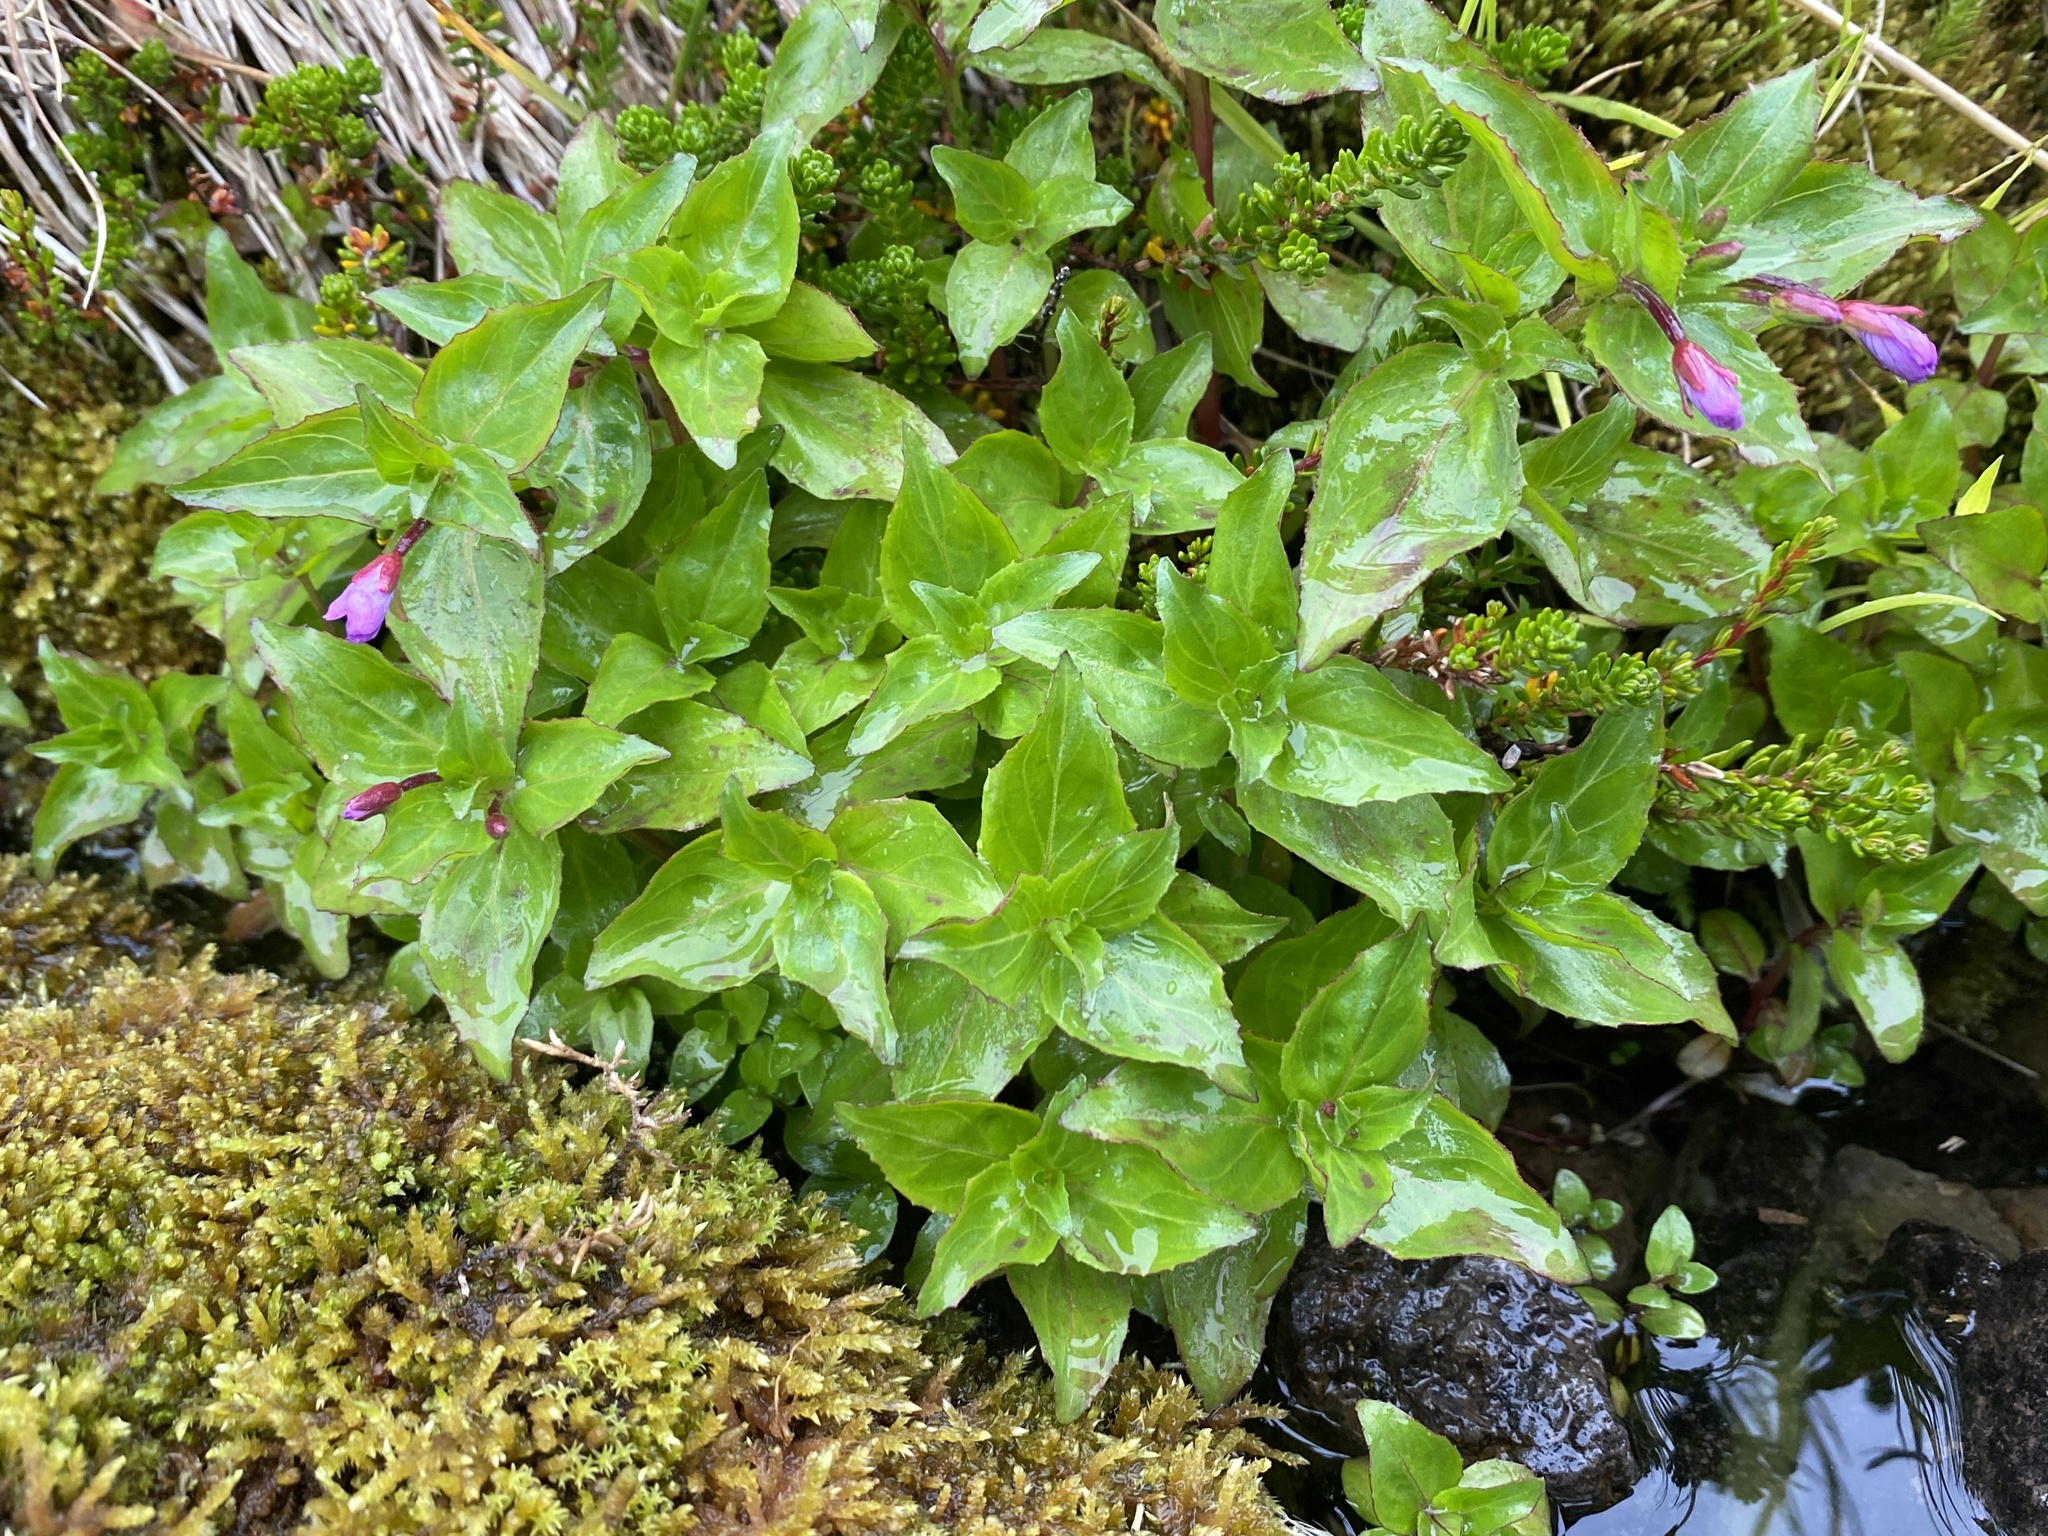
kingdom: Plantae
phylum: Tracheophyta
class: Magnoliopsida
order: Myrtales
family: Onagraceae
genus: Epilobium
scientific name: Epilobium alsinifolium
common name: Chickweed willowherb
